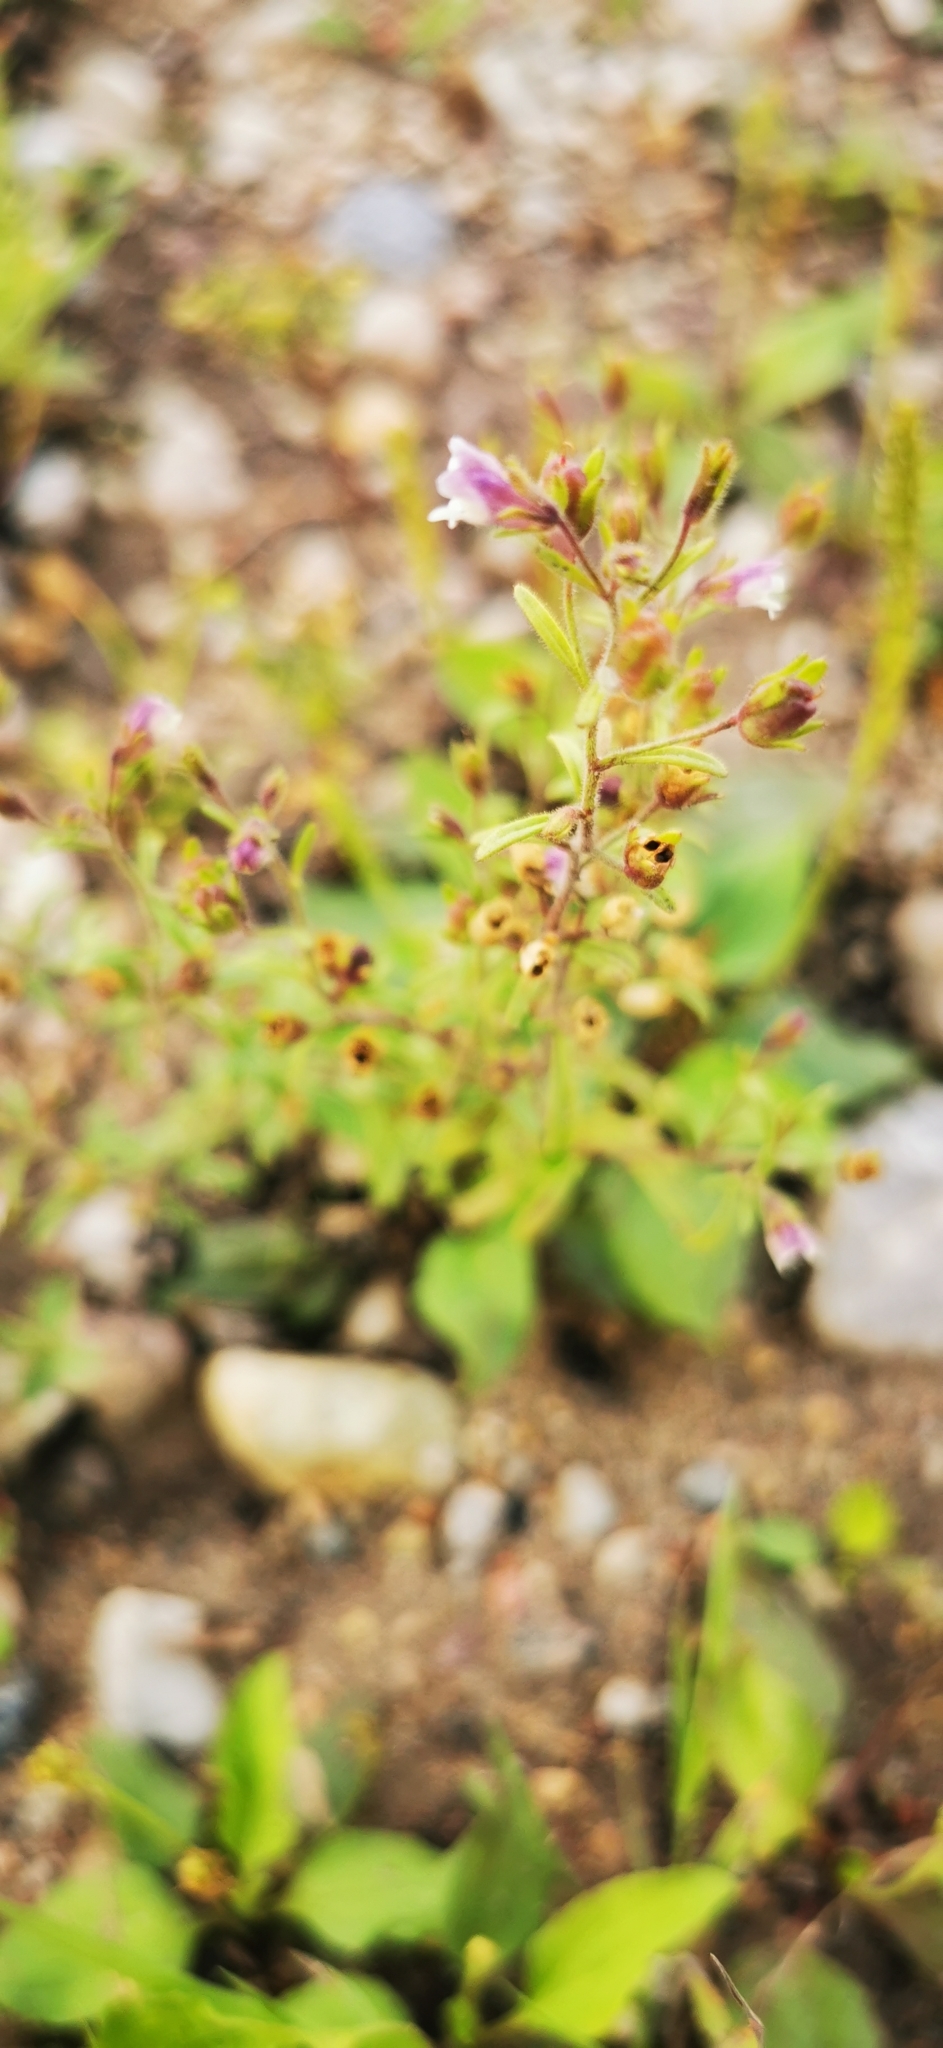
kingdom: Plantae
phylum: Tracheophyta
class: Magnoliopsida
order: Lamiales
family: Plantaginaceae
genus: Chaenorhinum
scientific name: Chaenorhinum minus
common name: Dwarf snapdragon
